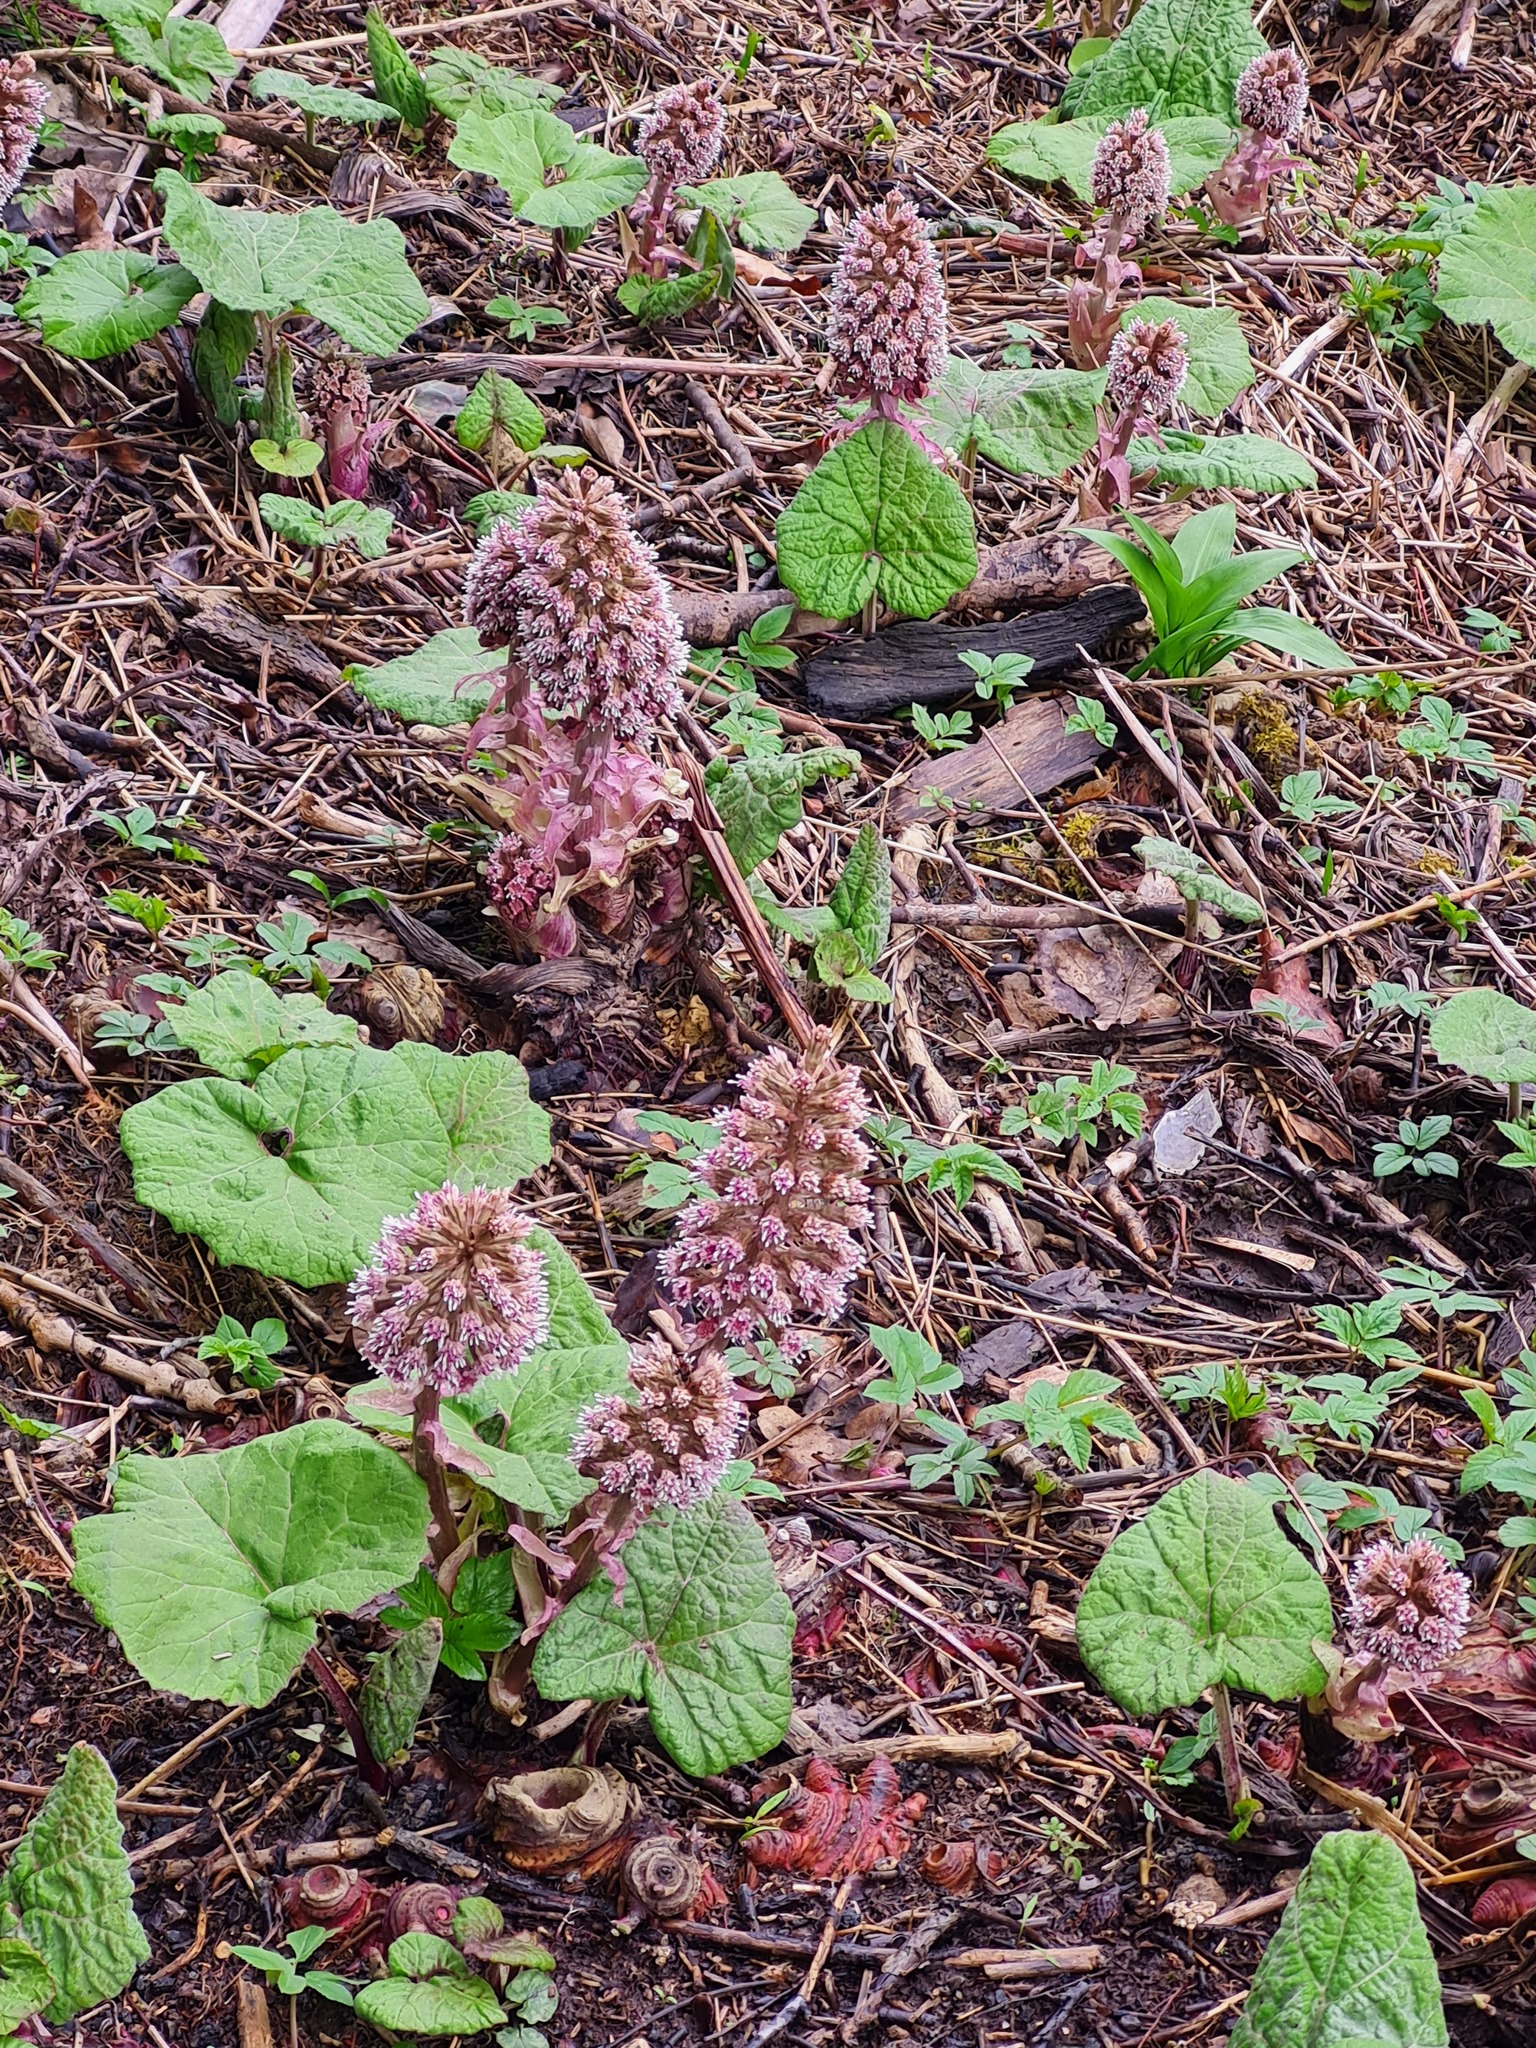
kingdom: Plantae
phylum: Tracheophyta
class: Magnoliopsida
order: Asterales
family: Asteraceae
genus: Petasites
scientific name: Petasites hybridus
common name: Butterbur
